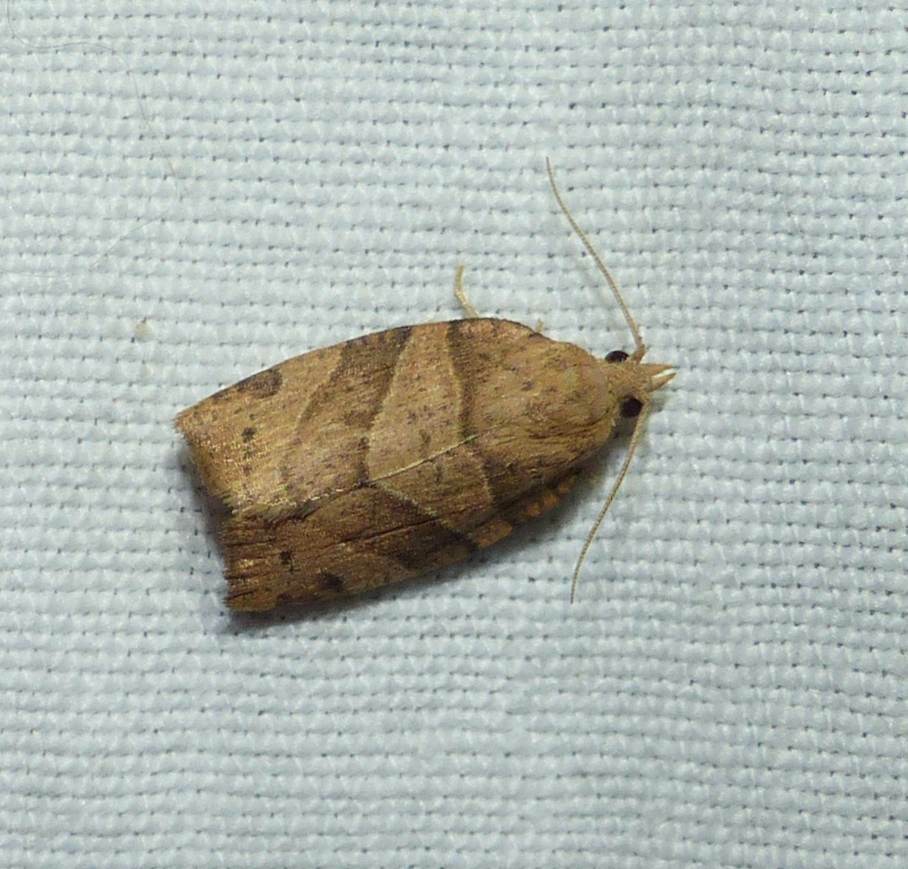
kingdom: Animalia
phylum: Arthropoda
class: Insecta
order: Lepidoptera
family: Tortricidae
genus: Pandemis
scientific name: Pandemis lamprosana
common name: Woodgrain leafroller moth
